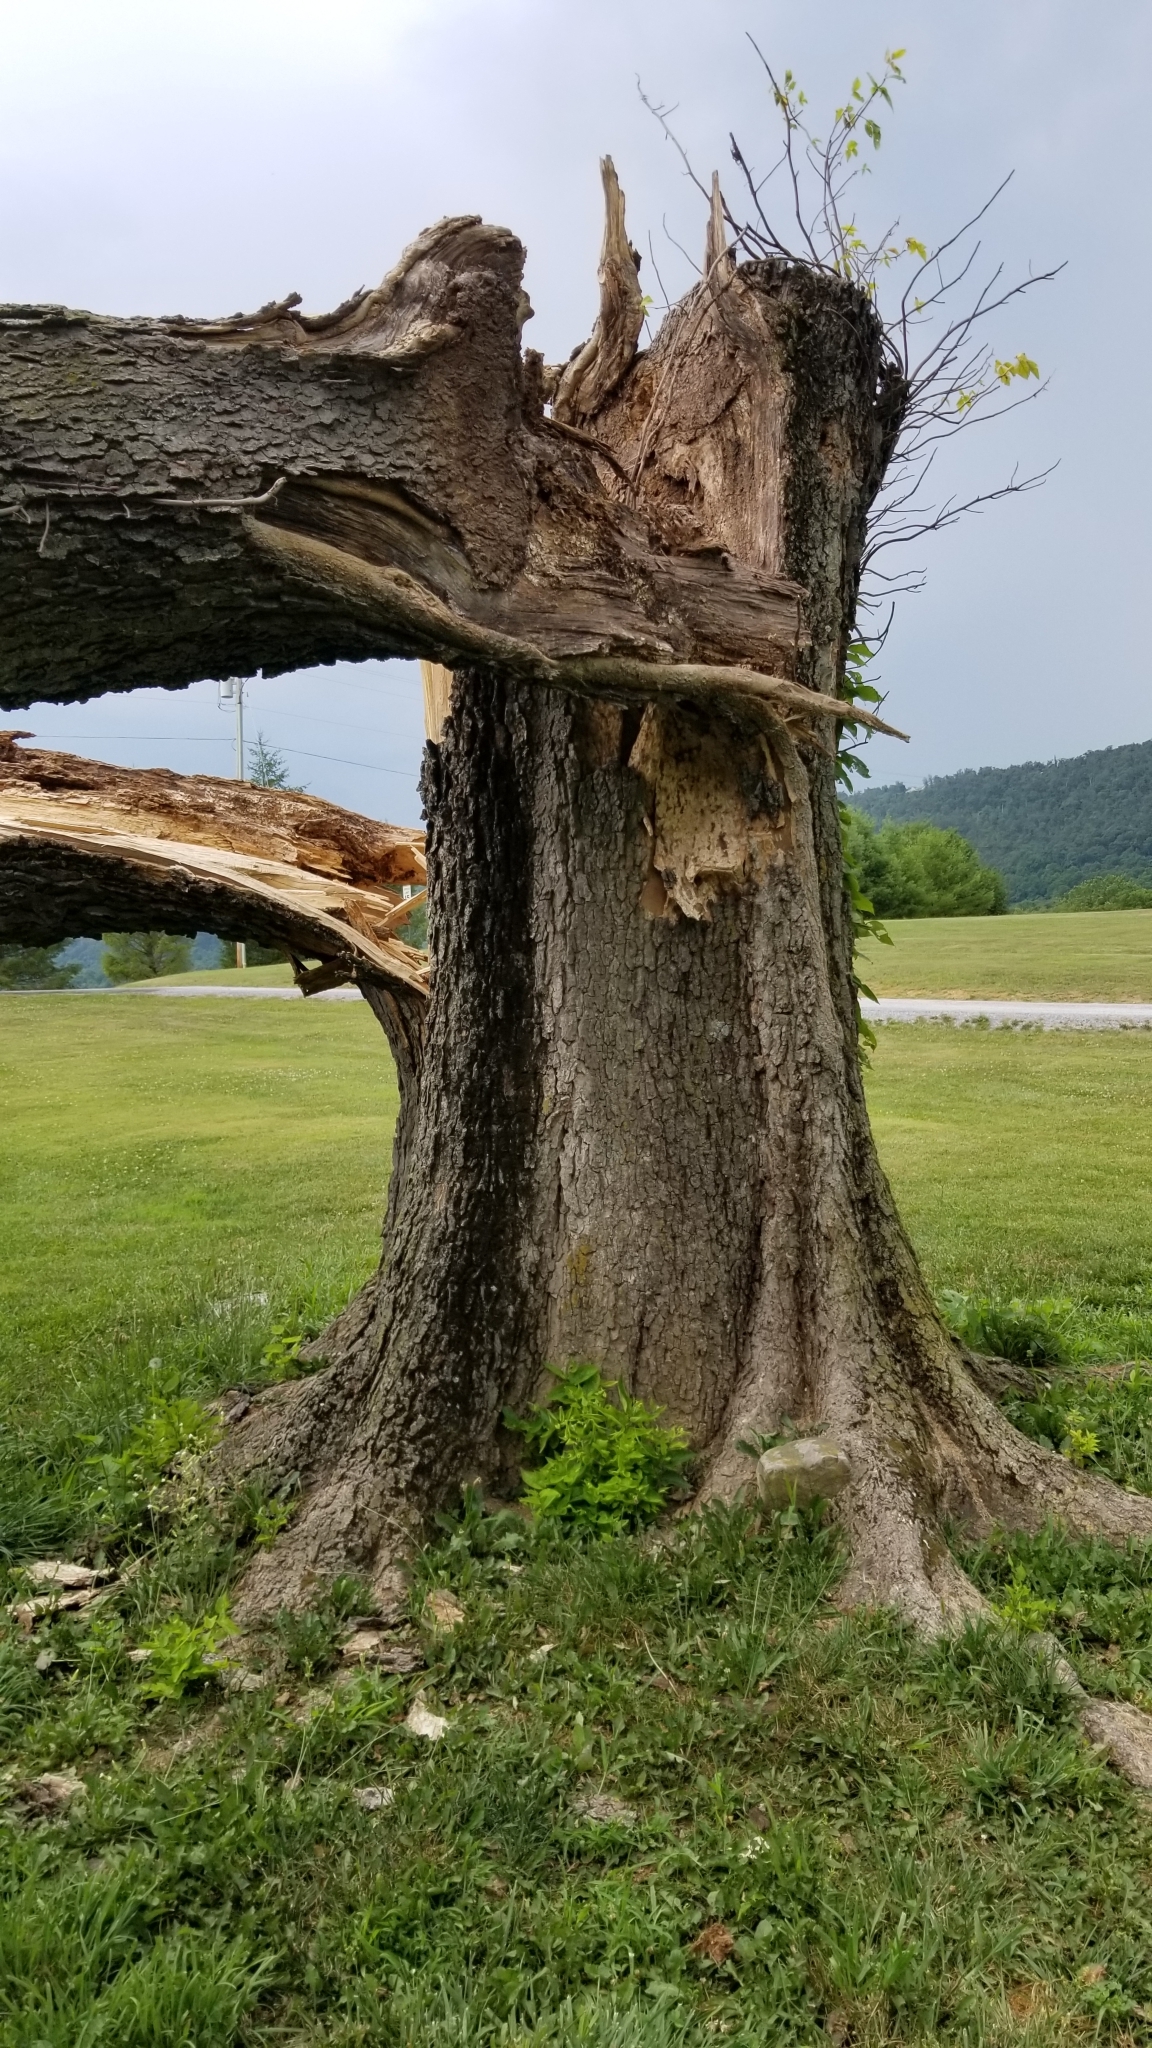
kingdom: Plantae
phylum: Tracheophyta
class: Magnoliopsida
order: Rosales
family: Cannabaceae
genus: Celtis
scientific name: Celtis occidentalis
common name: Common hackberry
